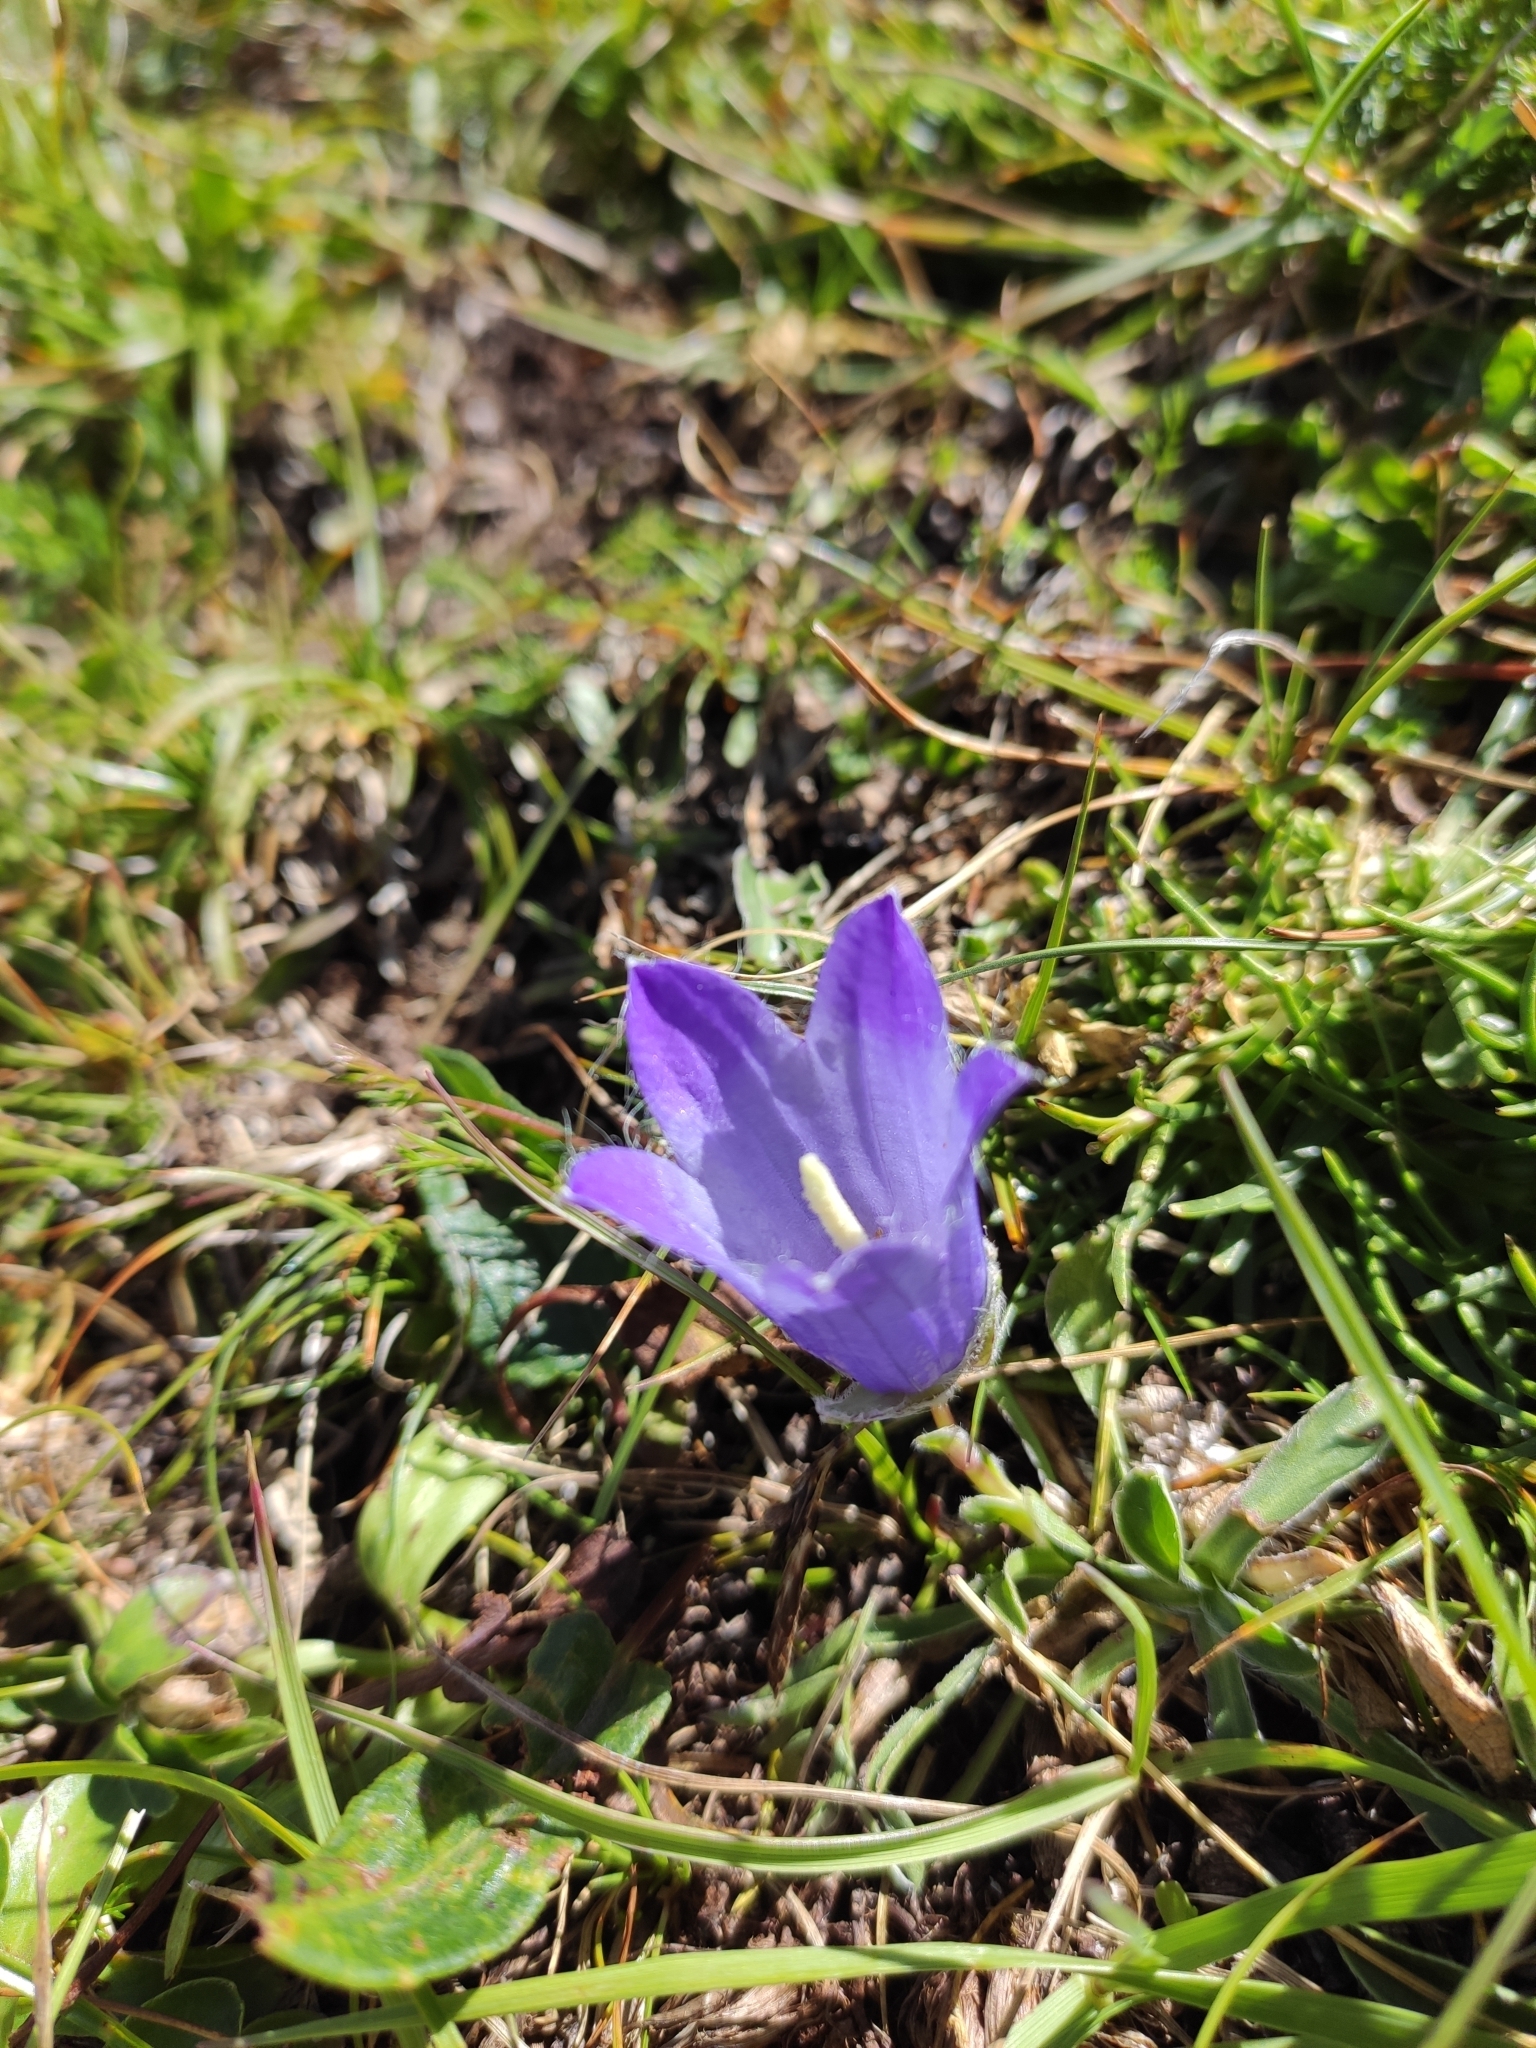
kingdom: Plantae
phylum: Tracheophyta
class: Magnoliopsida
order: Asterales
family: Campanulaceae
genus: Campanula
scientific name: Campanula tridentata
